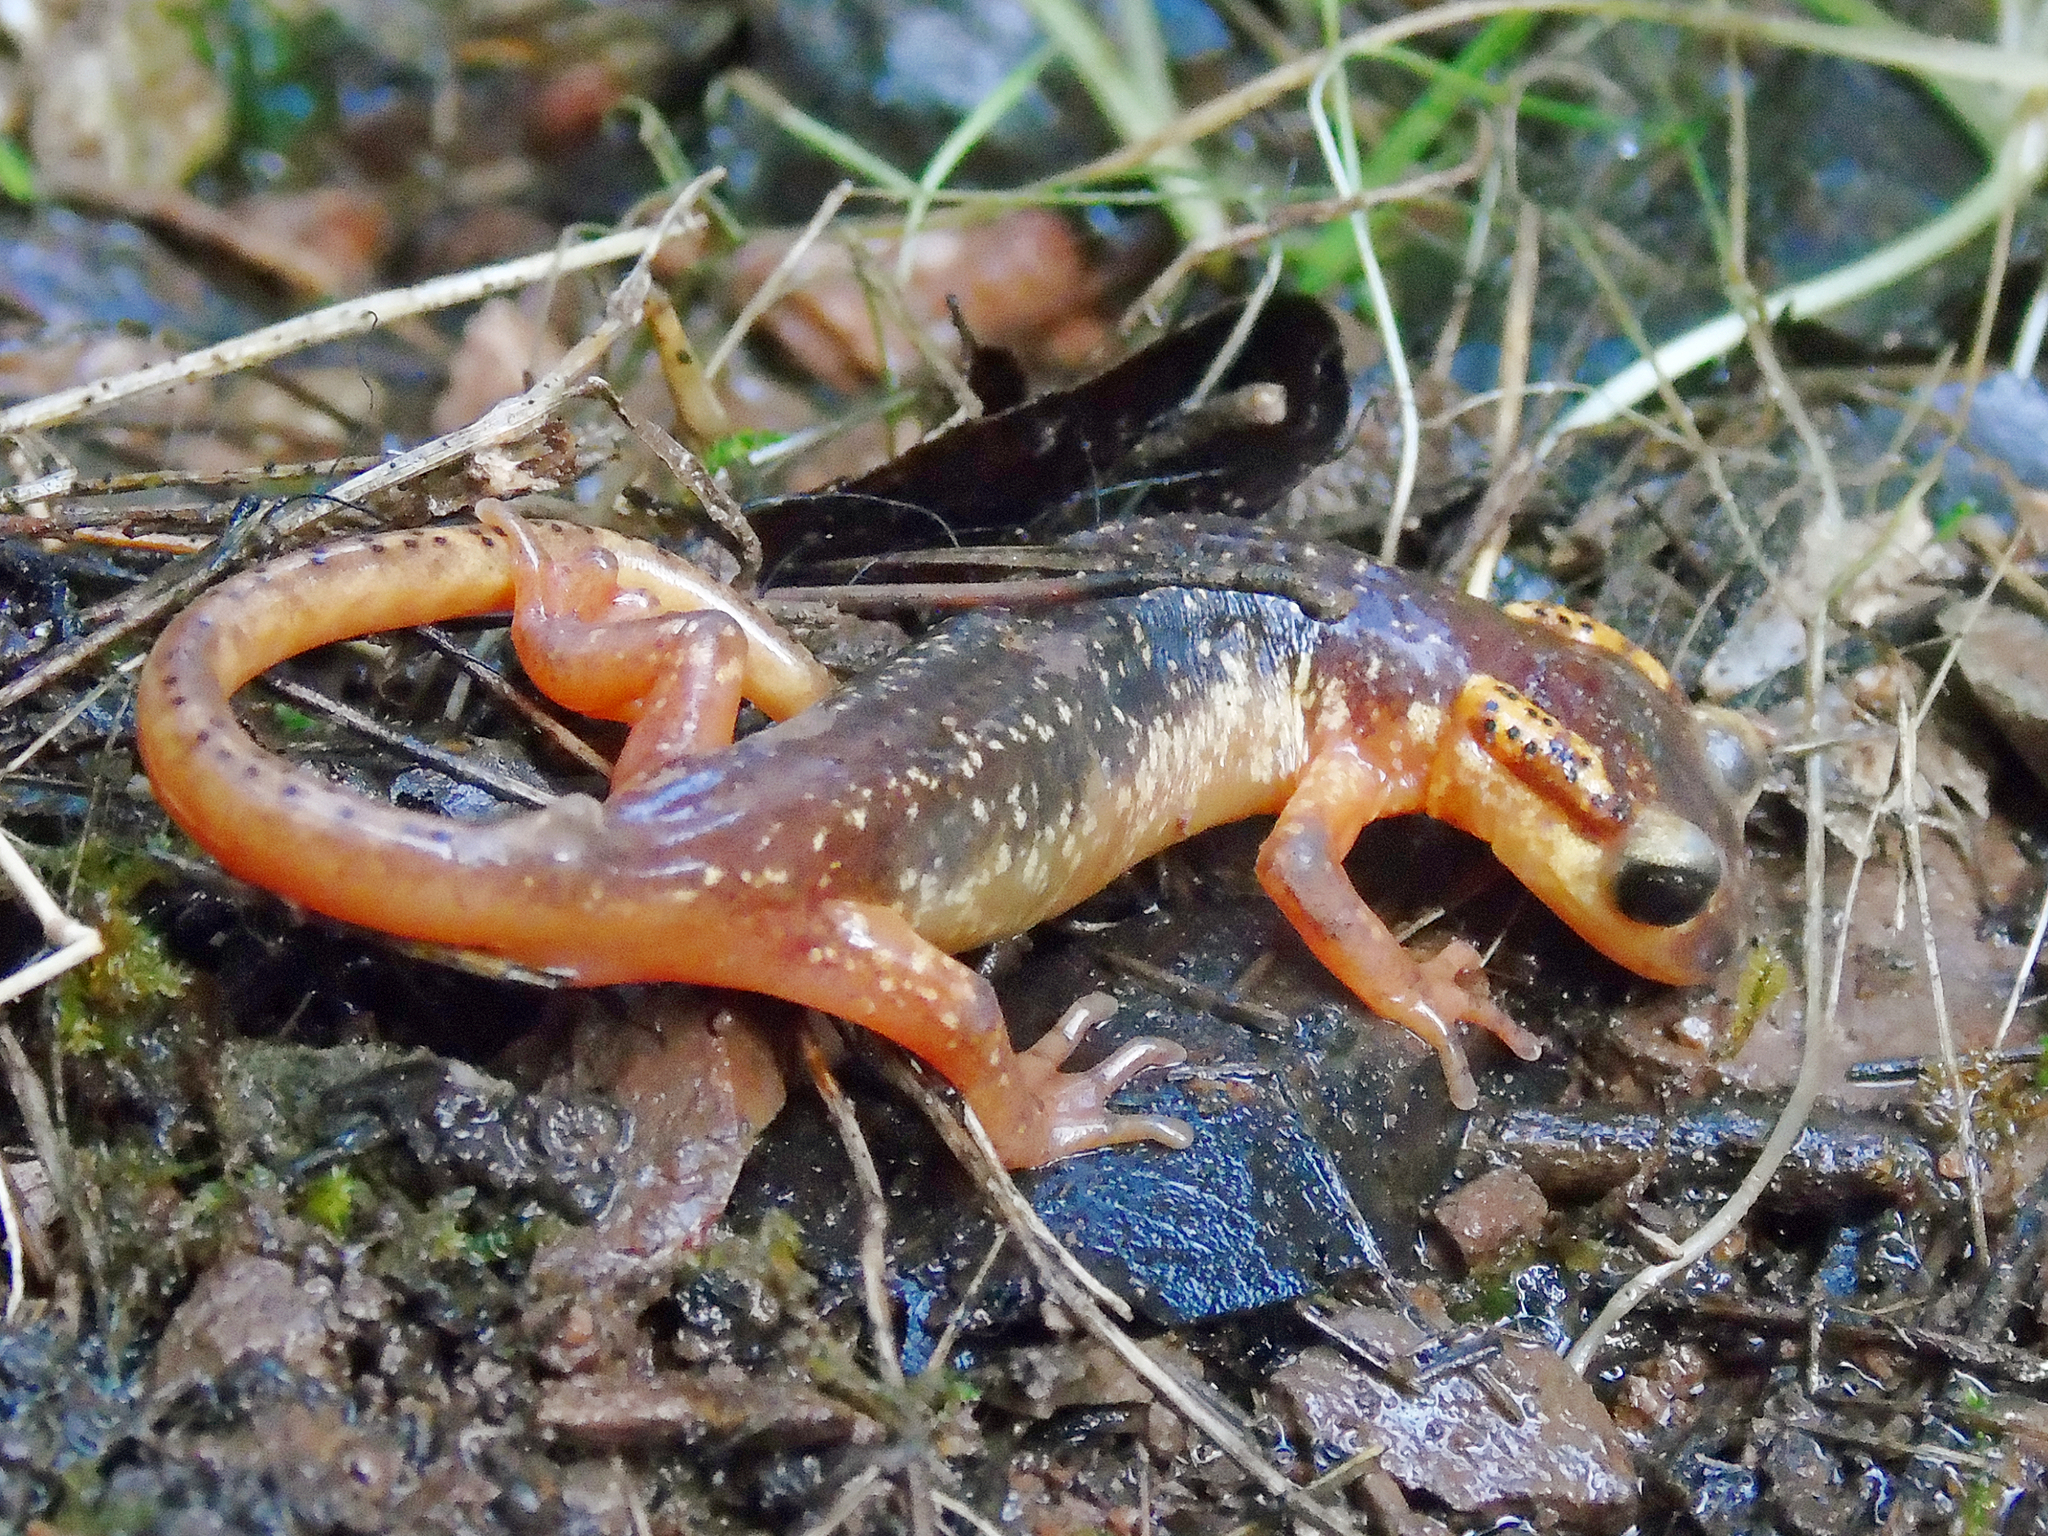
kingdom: Animalia
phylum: Chordata
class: Amphibia
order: Caudata
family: Salamandridae
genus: Lyciasalamandra
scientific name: Lyciasalamandra flavimembris
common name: Maramaris salamander
